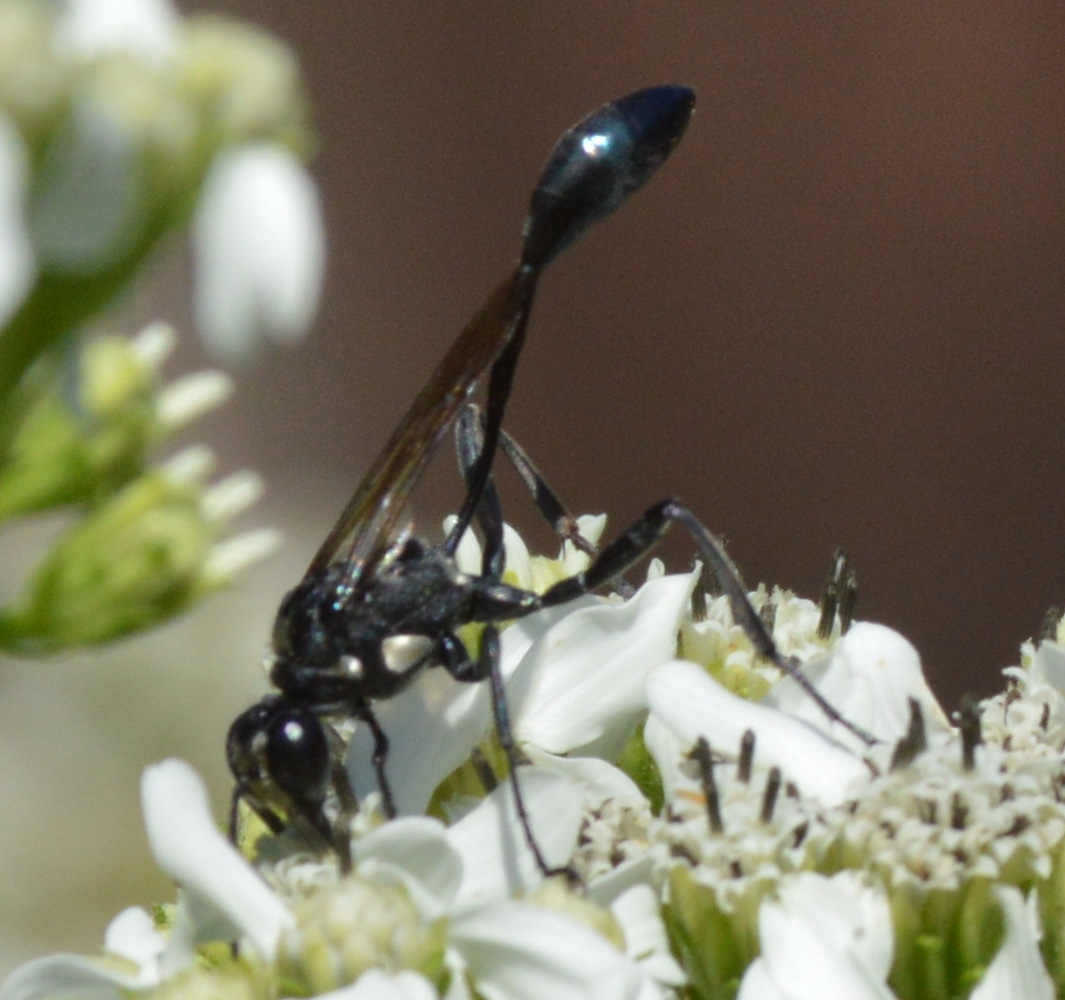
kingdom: Animalia
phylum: Arthropoda
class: Insecta
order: Hymenoptera
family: Sphecidae
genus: Eremnophila
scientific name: Eremnophila aureonotata
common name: Gold-marked thread-waisted wasp
